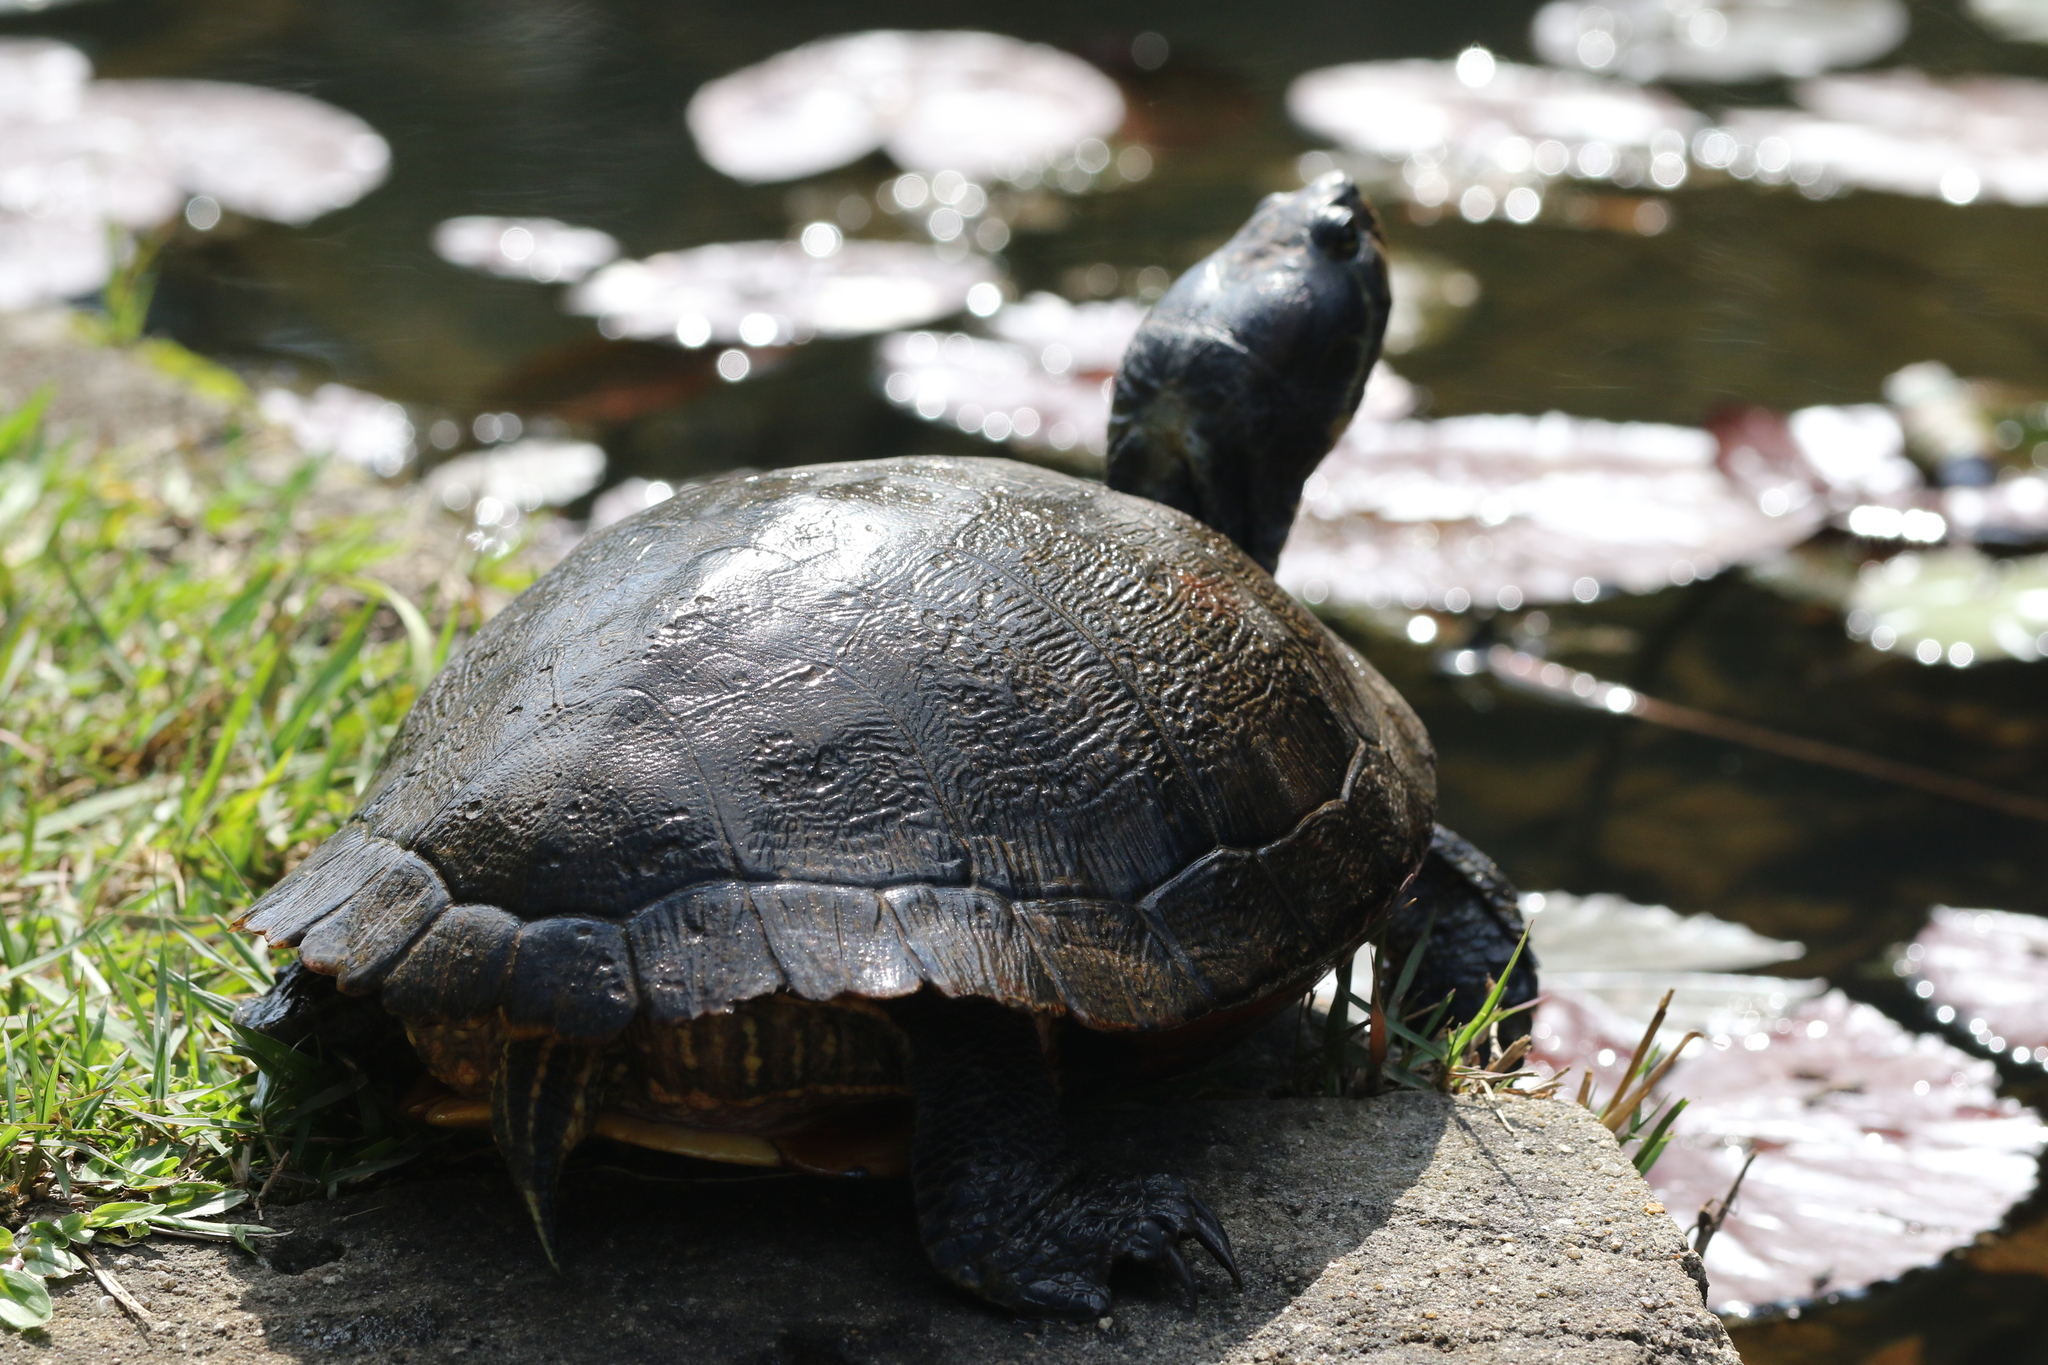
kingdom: Animalia
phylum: Chordata
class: Testudines
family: Emydidae
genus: Trachemys
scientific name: Trachemys scripta
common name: Slider
